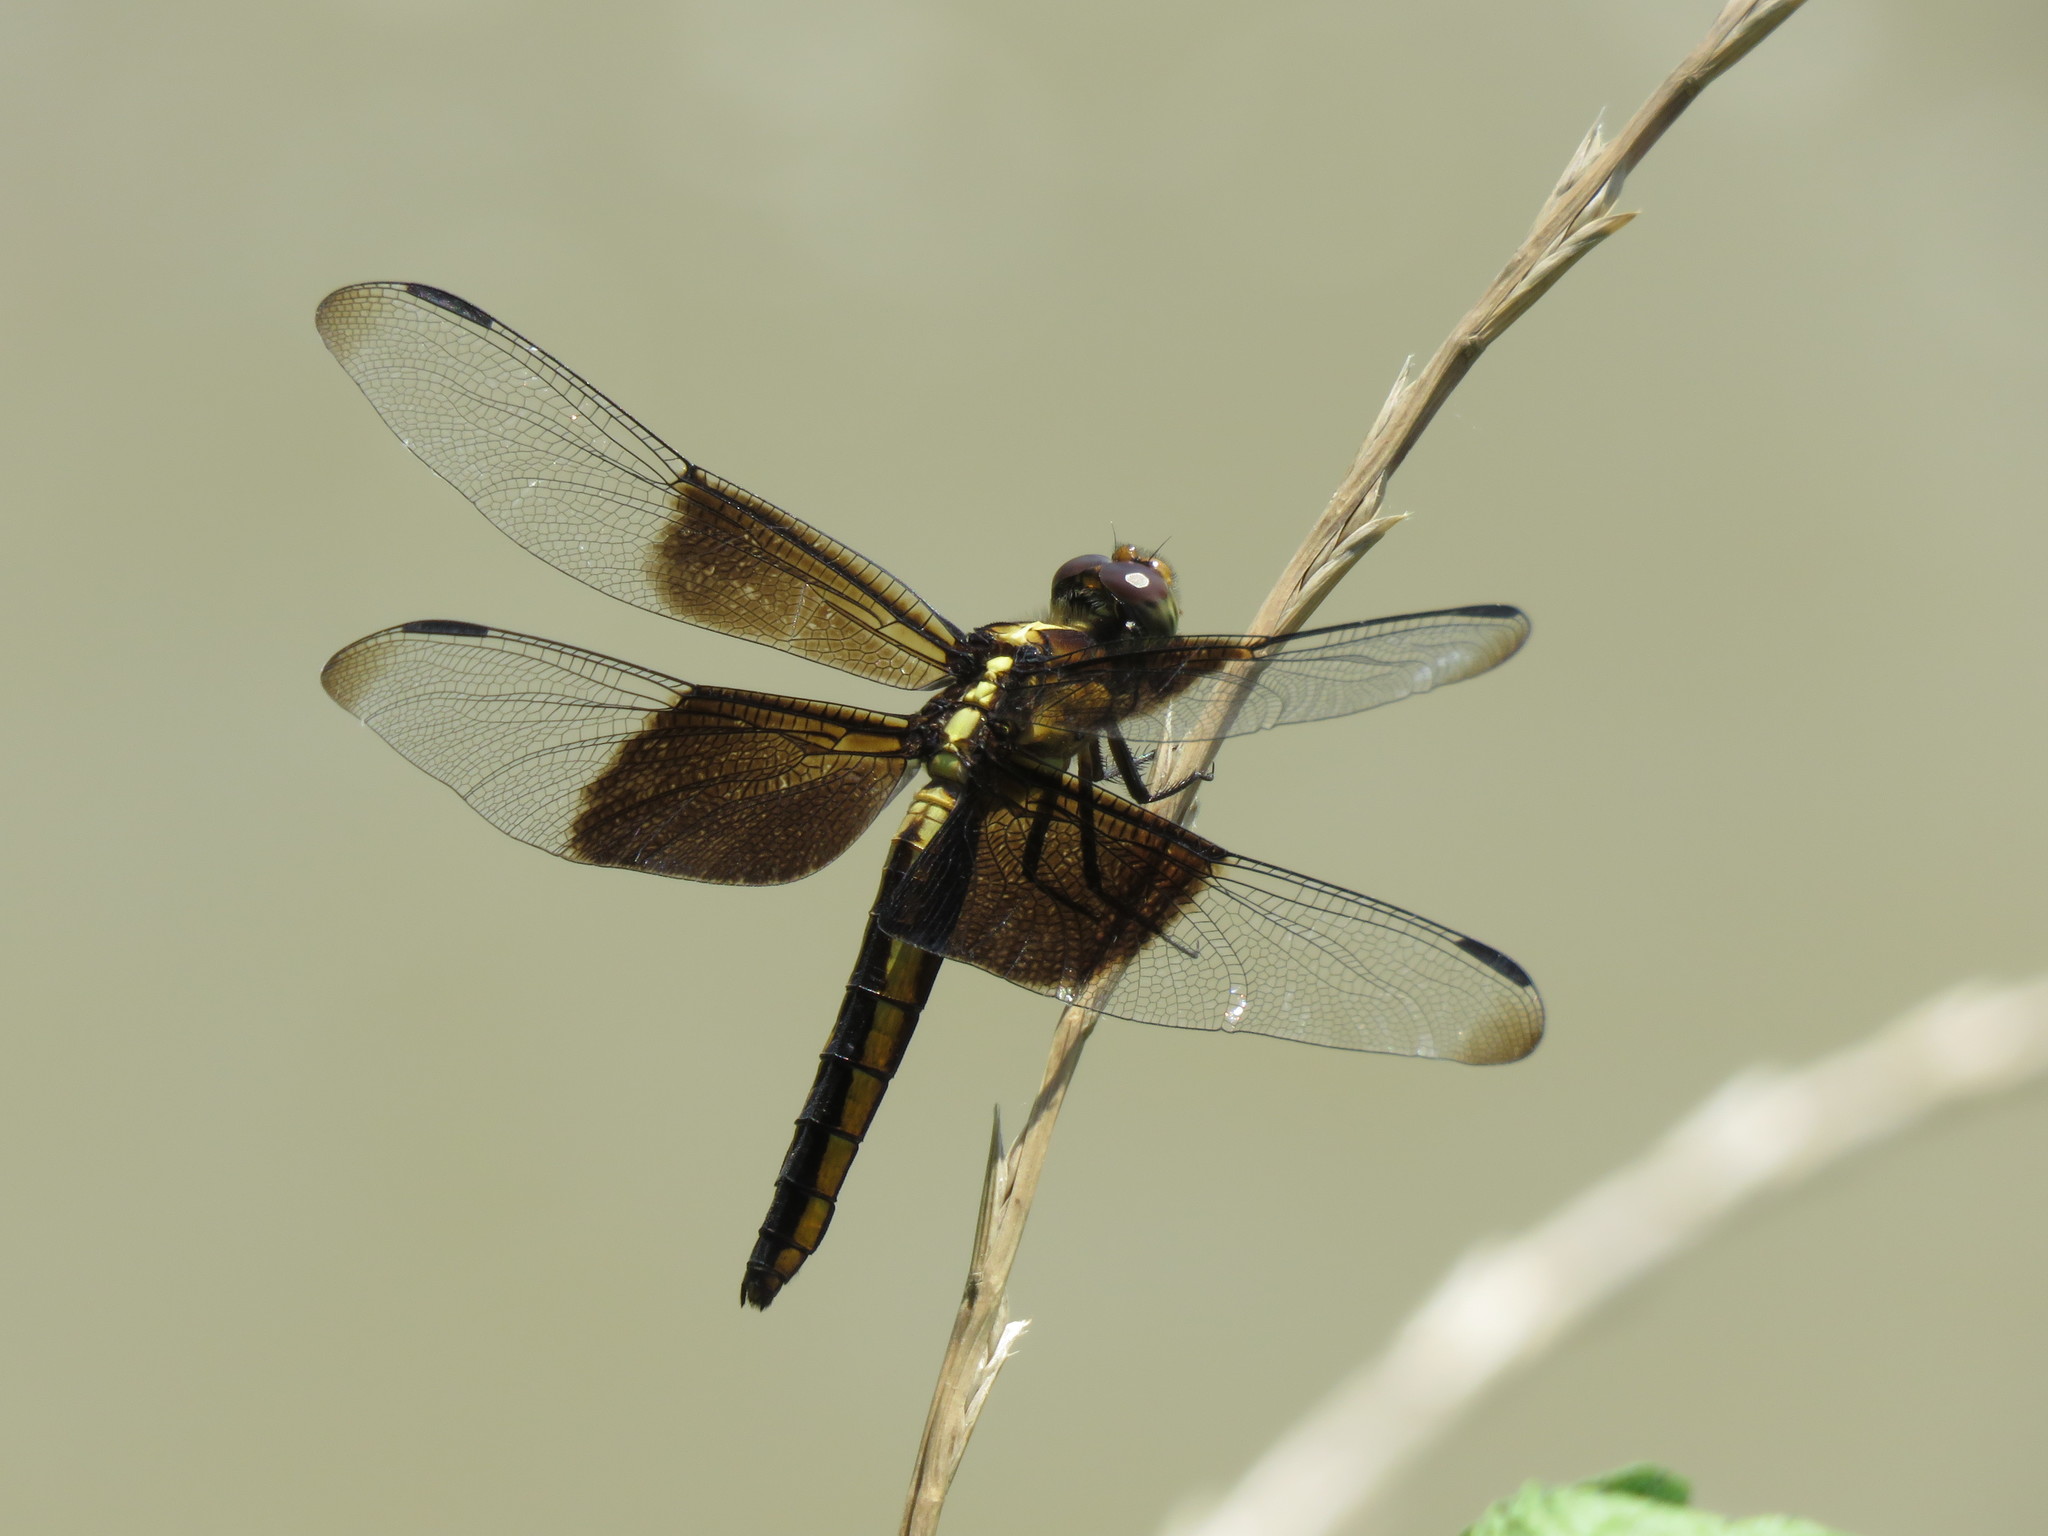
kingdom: Animalia
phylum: Arthropoda
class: Insecta
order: Odonata
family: Libellulidae
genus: Libellula
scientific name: Libellula luctuosa
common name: Widow skimmer
